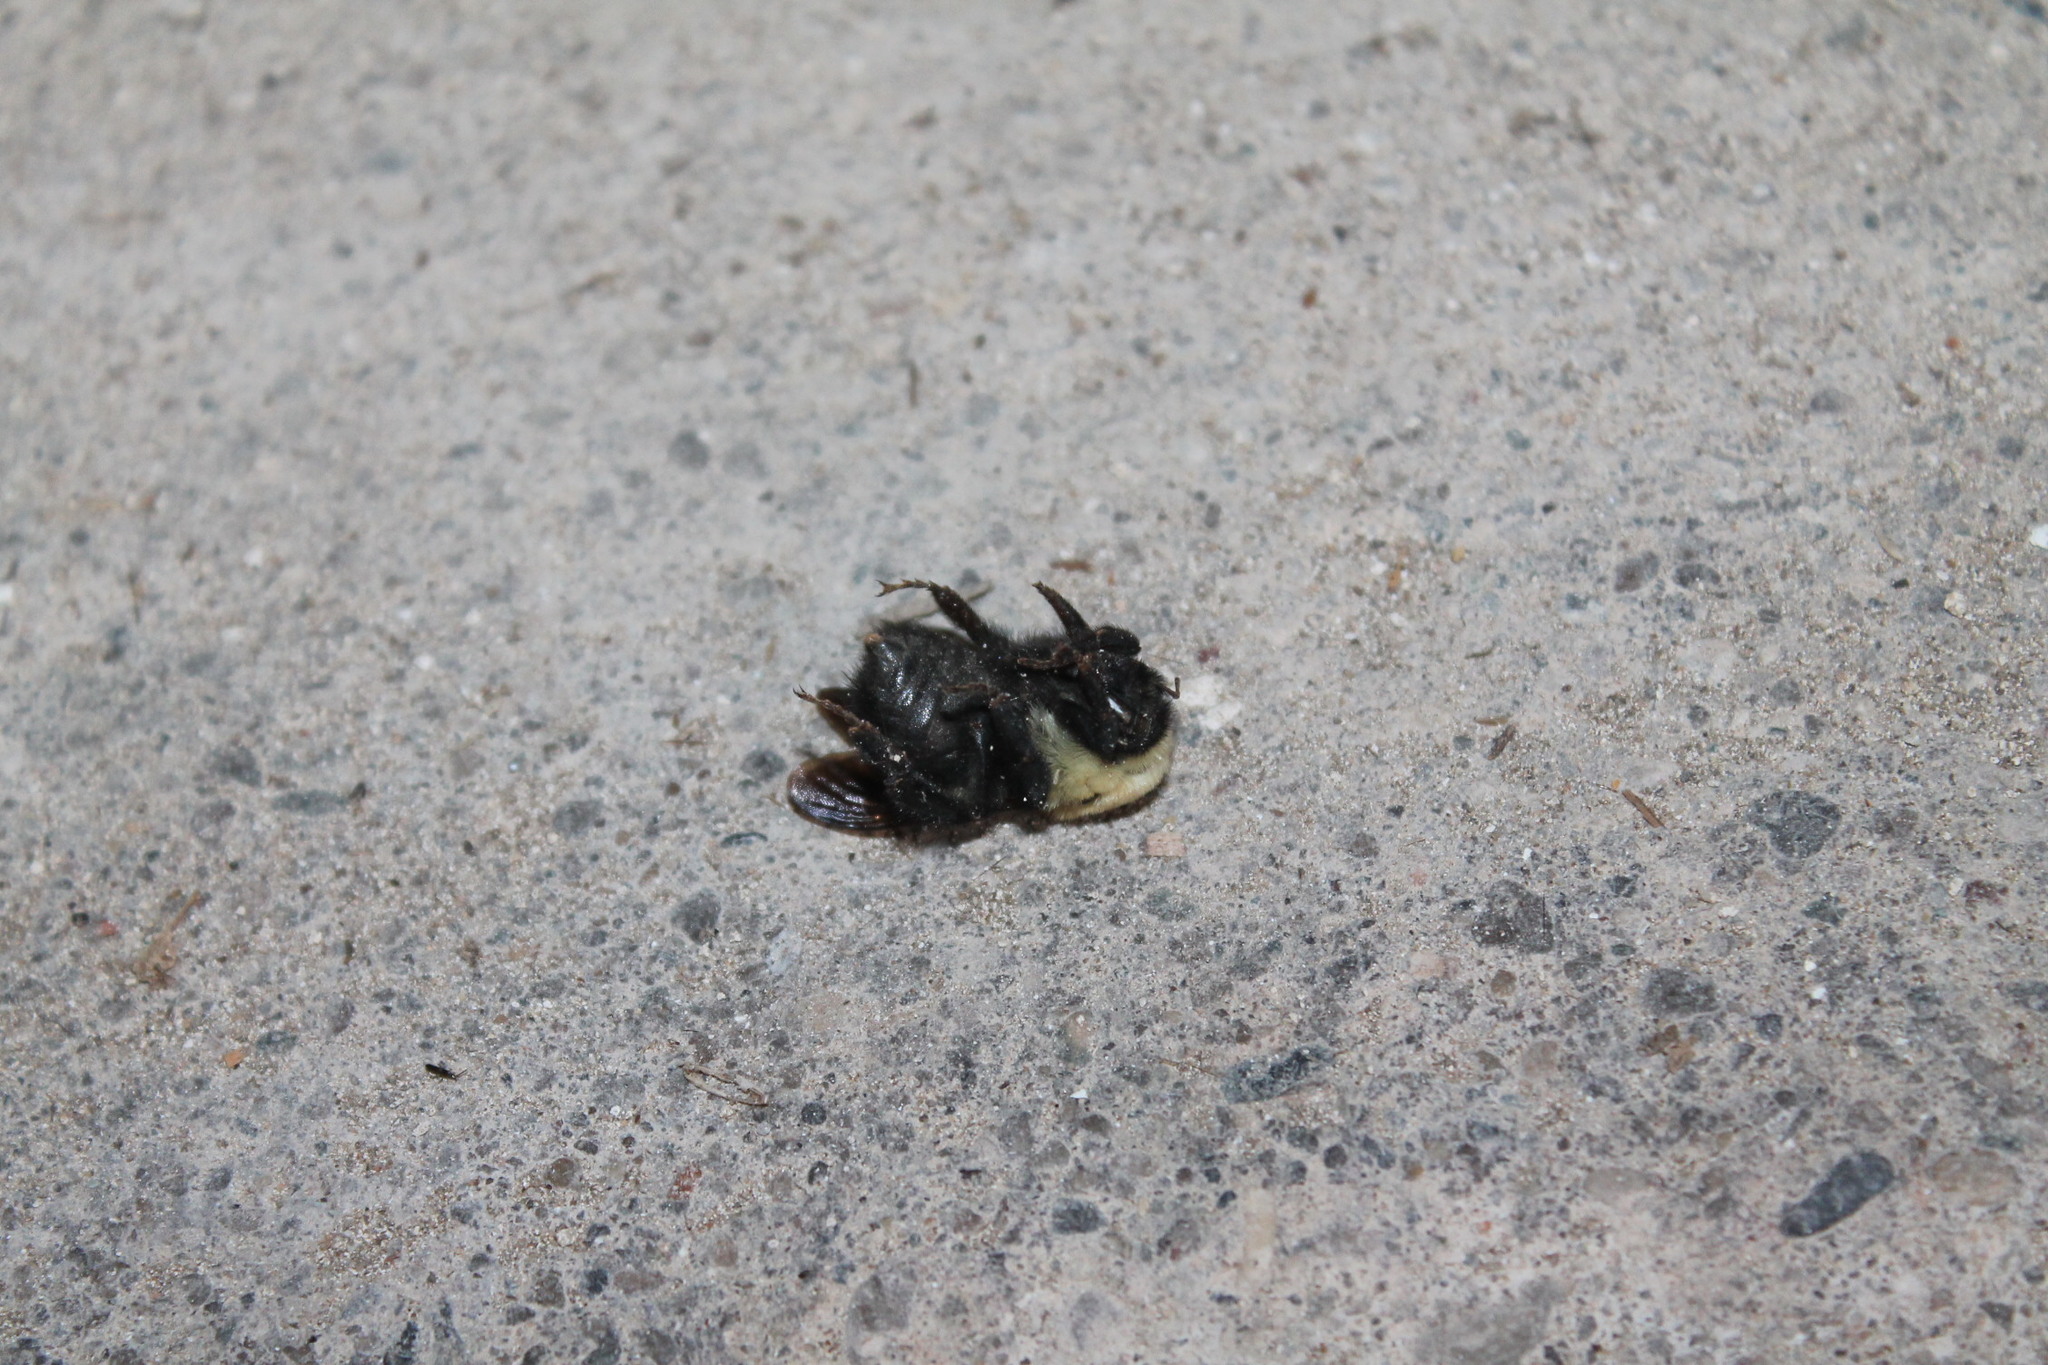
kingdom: Animalia
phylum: Arthropoda
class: Insecta
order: Hymenoptera
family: Apidae
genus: Bombus
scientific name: Bombus griseocollis
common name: Brown-belted bumble bee
